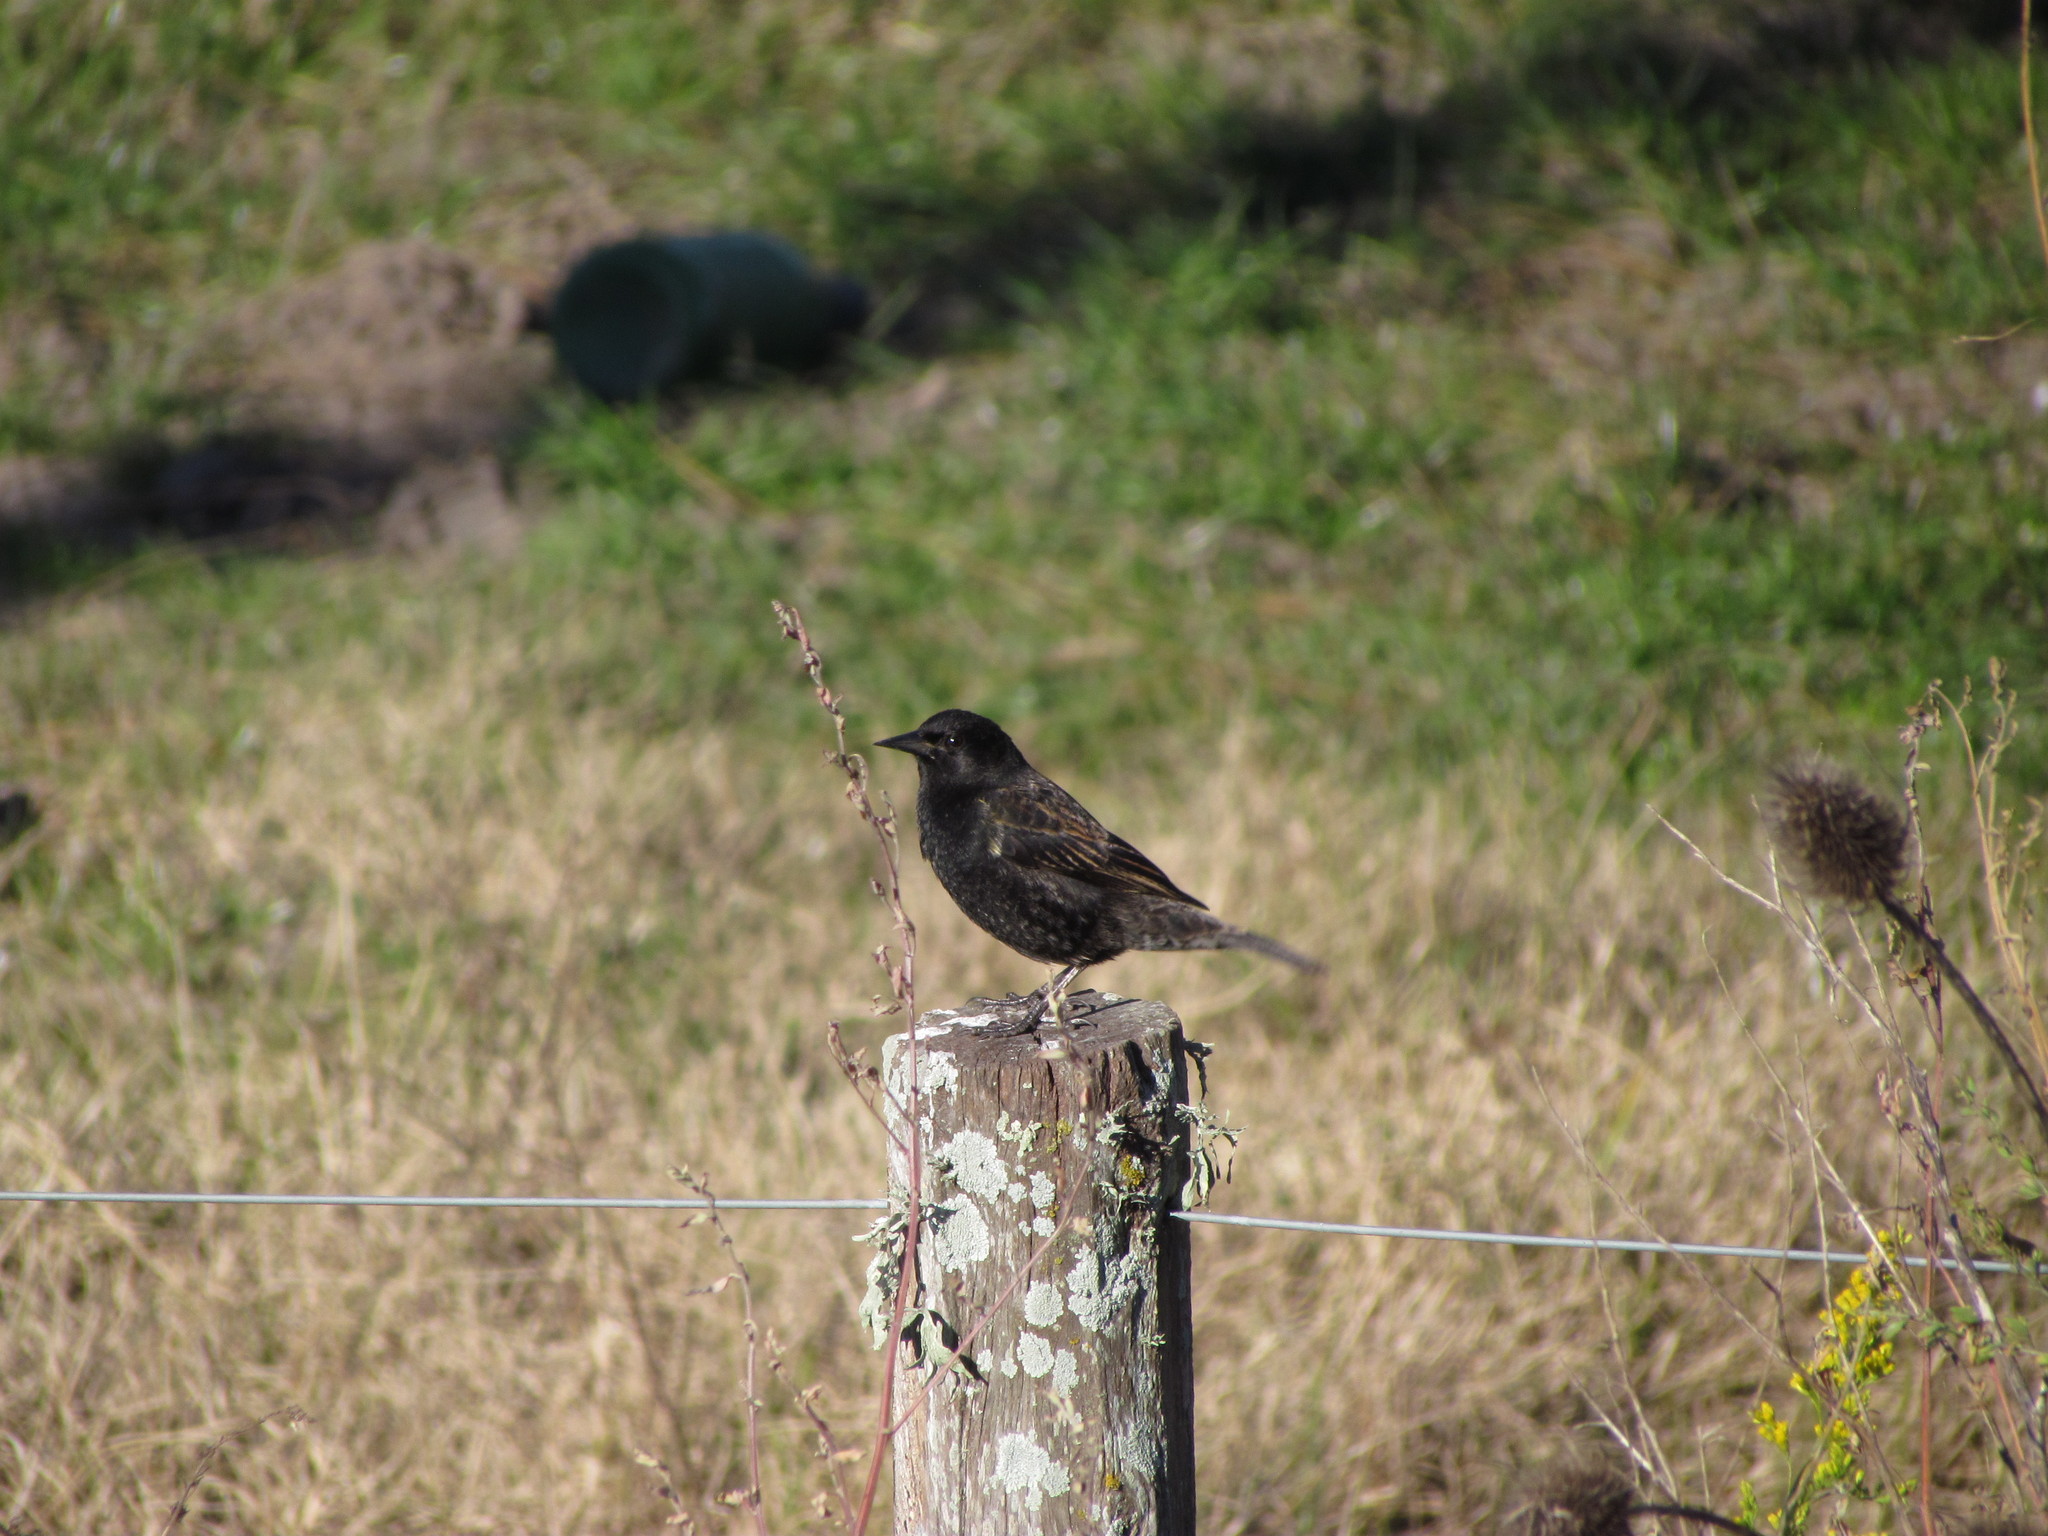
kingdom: Animalia
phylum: Chordata
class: Aves
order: Passeriformes
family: Icteridae
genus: Agelasticus
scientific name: Agelasticus thilius
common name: Yellow-winged blackbird
